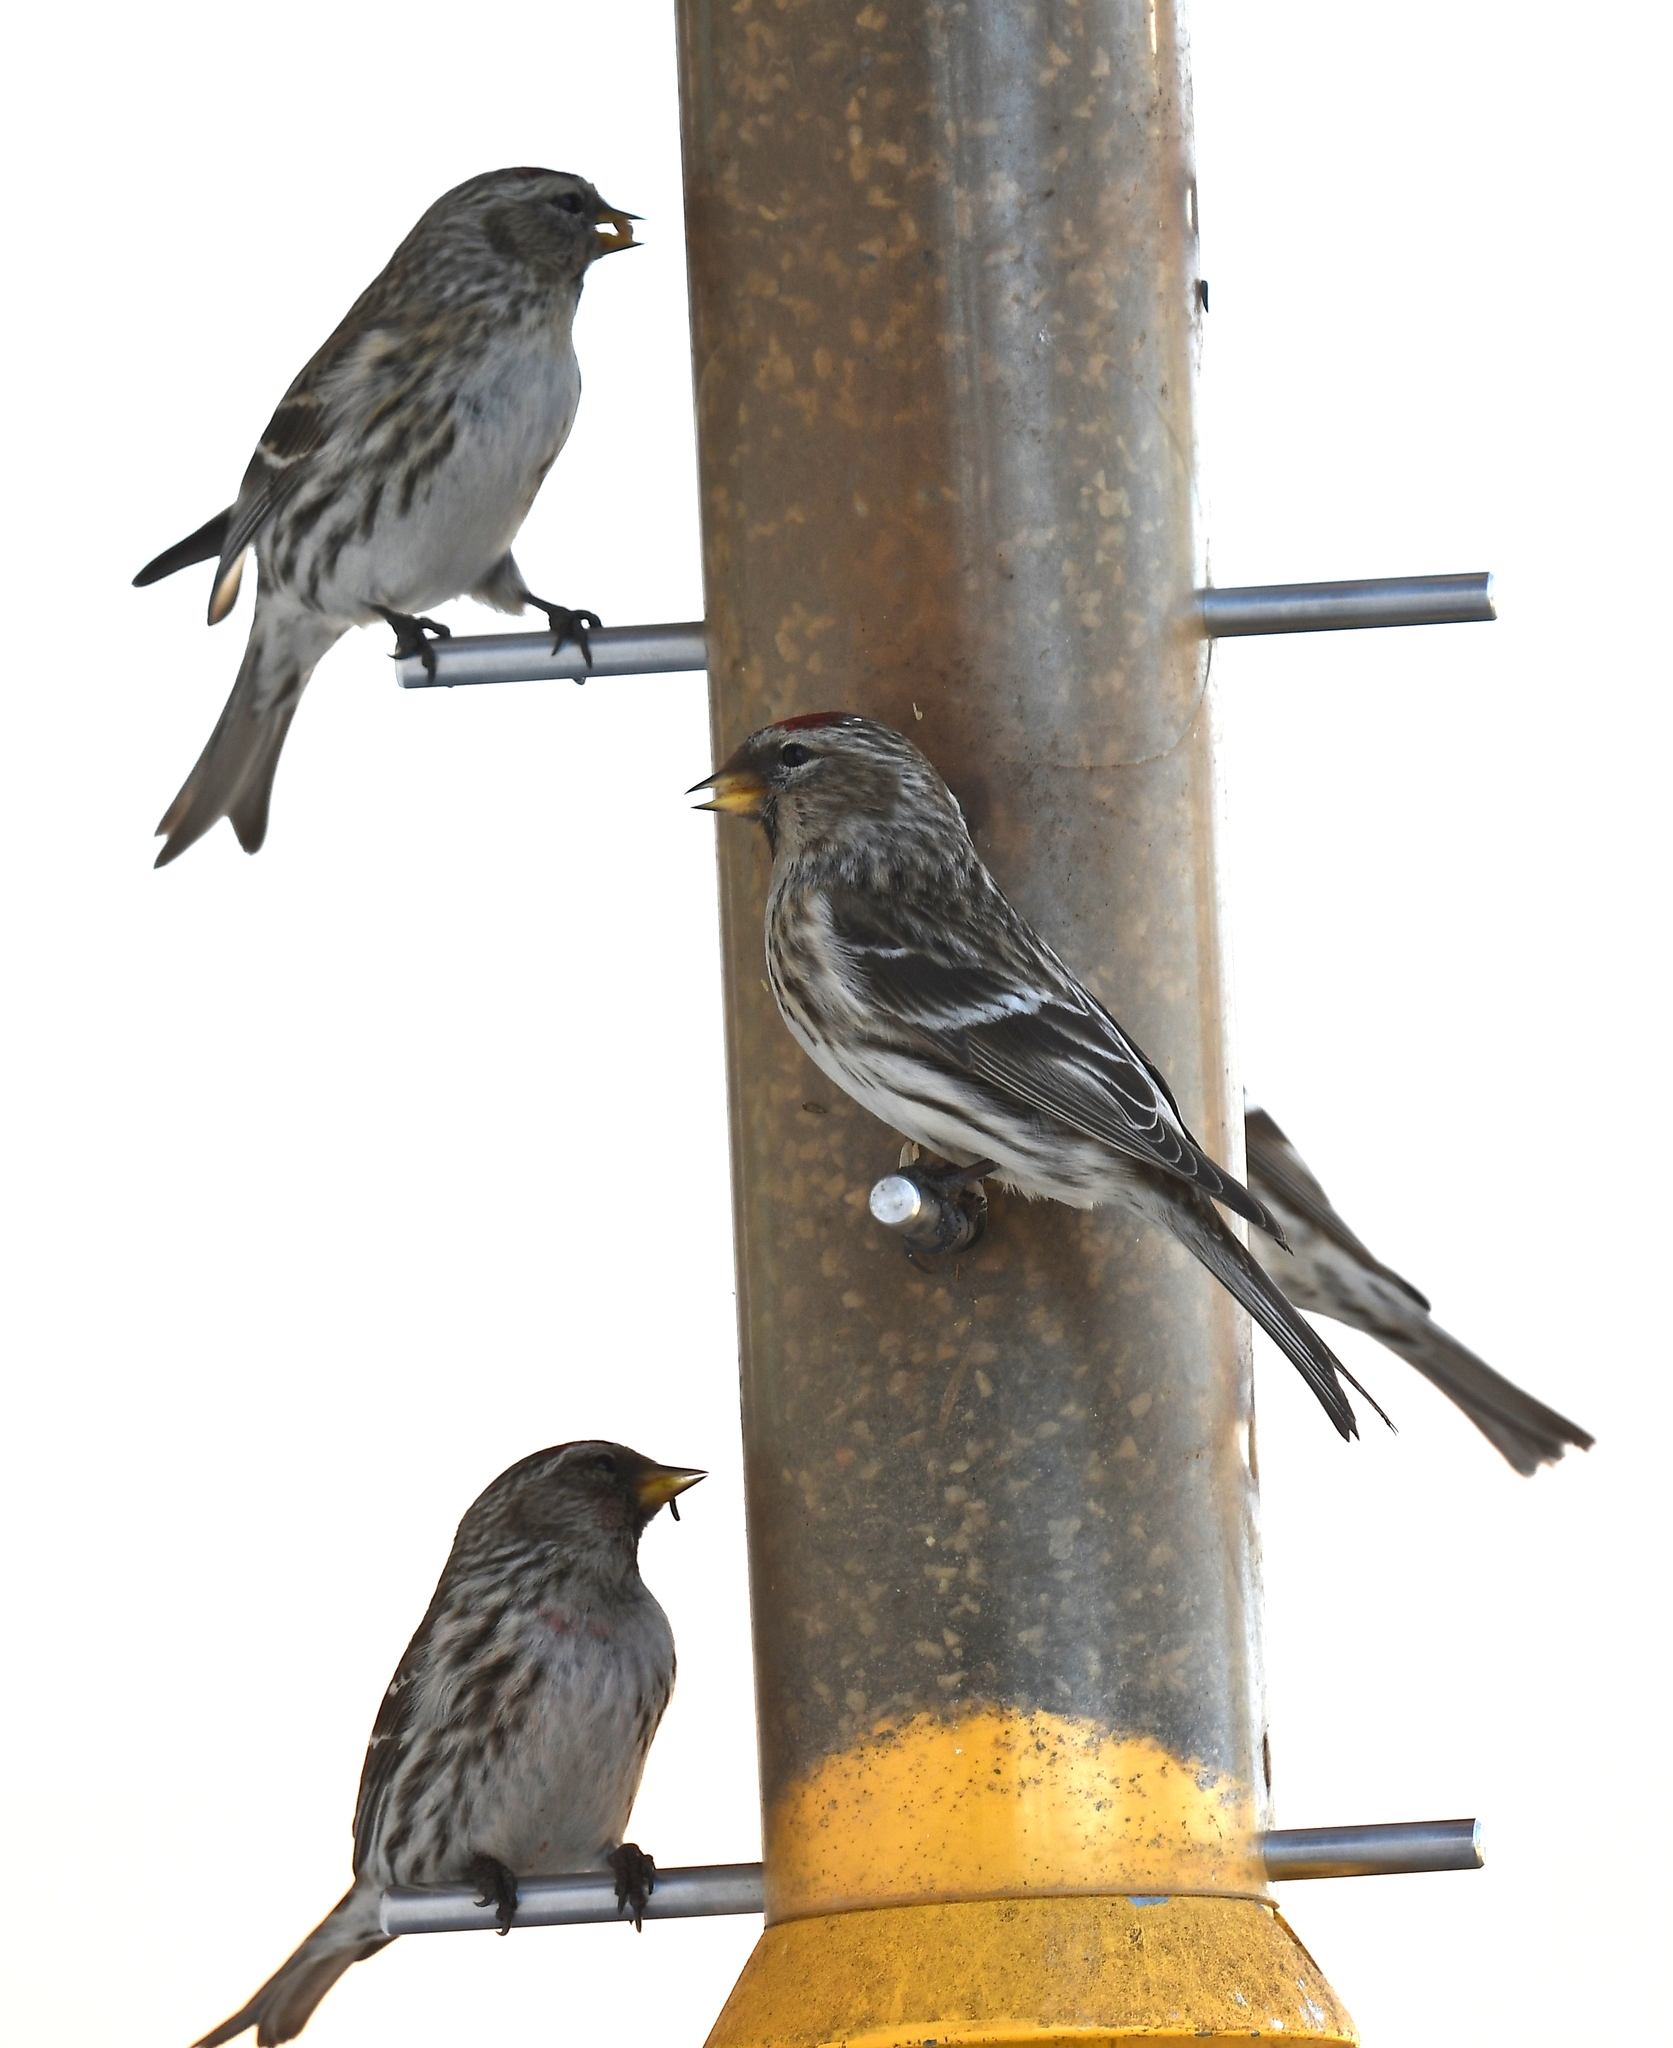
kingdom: Animalia
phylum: Chordata
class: Aves
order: Passeriformes
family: Fringillidae
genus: Acanthis
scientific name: Acanthis flammea
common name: Common redpoll
